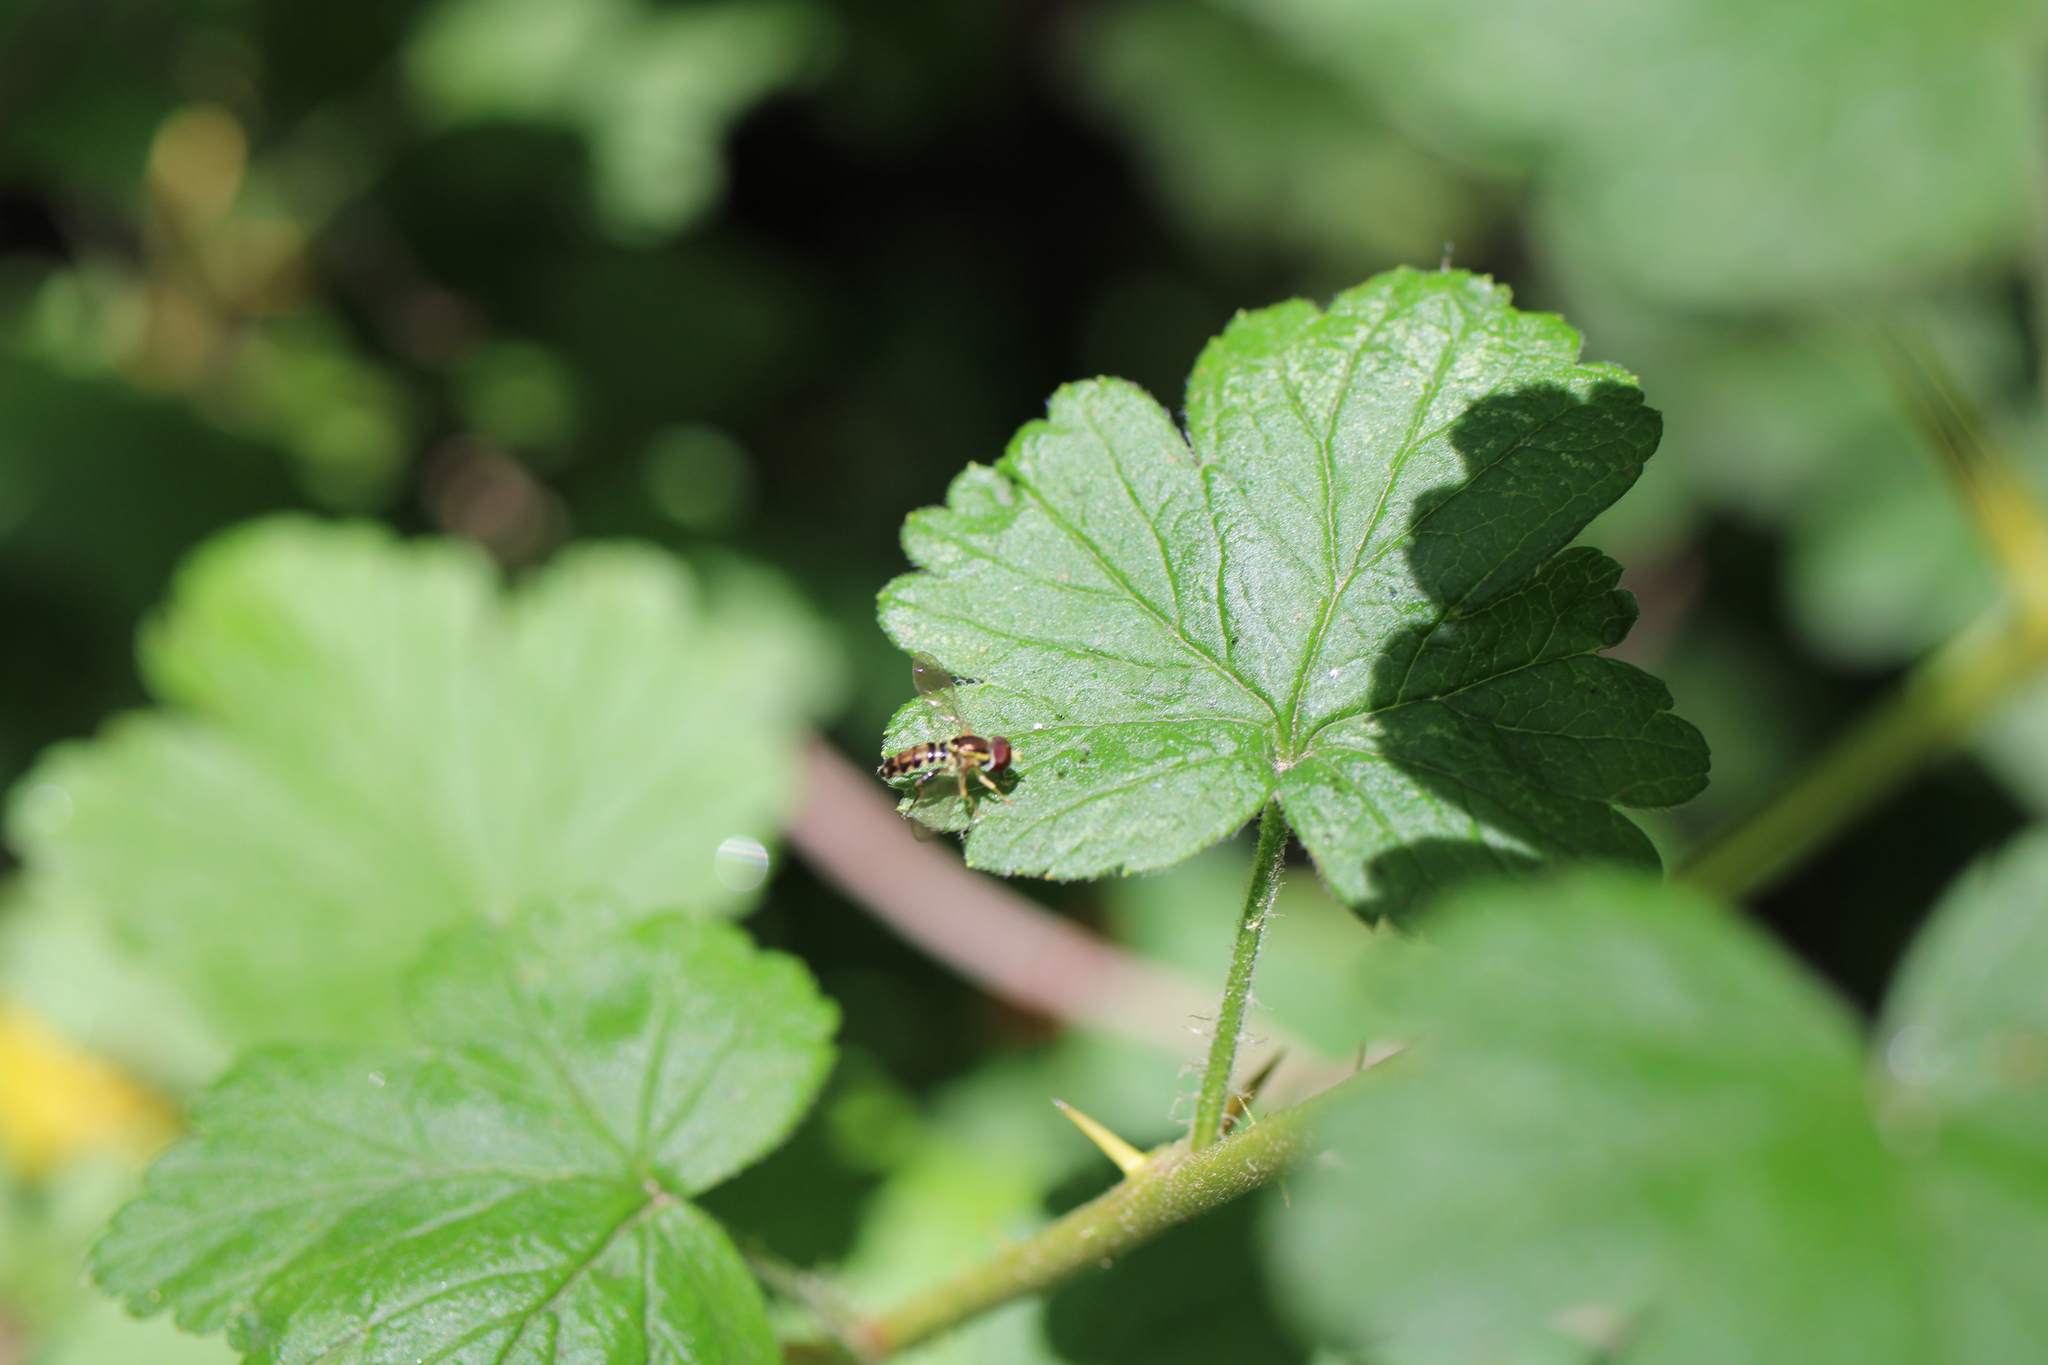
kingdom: Animalia
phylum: Arthropoda
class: Insecta
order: Diptera
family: Syrphidae
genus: Toxomerus
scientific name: Toxomerus geminatus
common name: Eastern calligrapher
